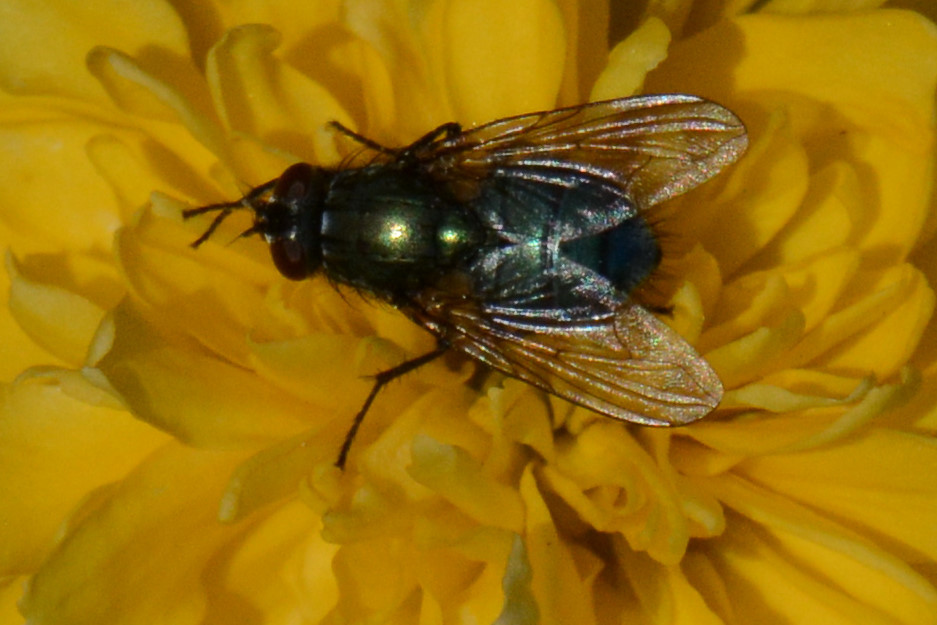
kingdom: Animalia
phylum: Arthropoda
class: Insecta
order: Diptera
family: Muscidae
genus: Dasyphora
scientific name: Dasyphora cyanella
